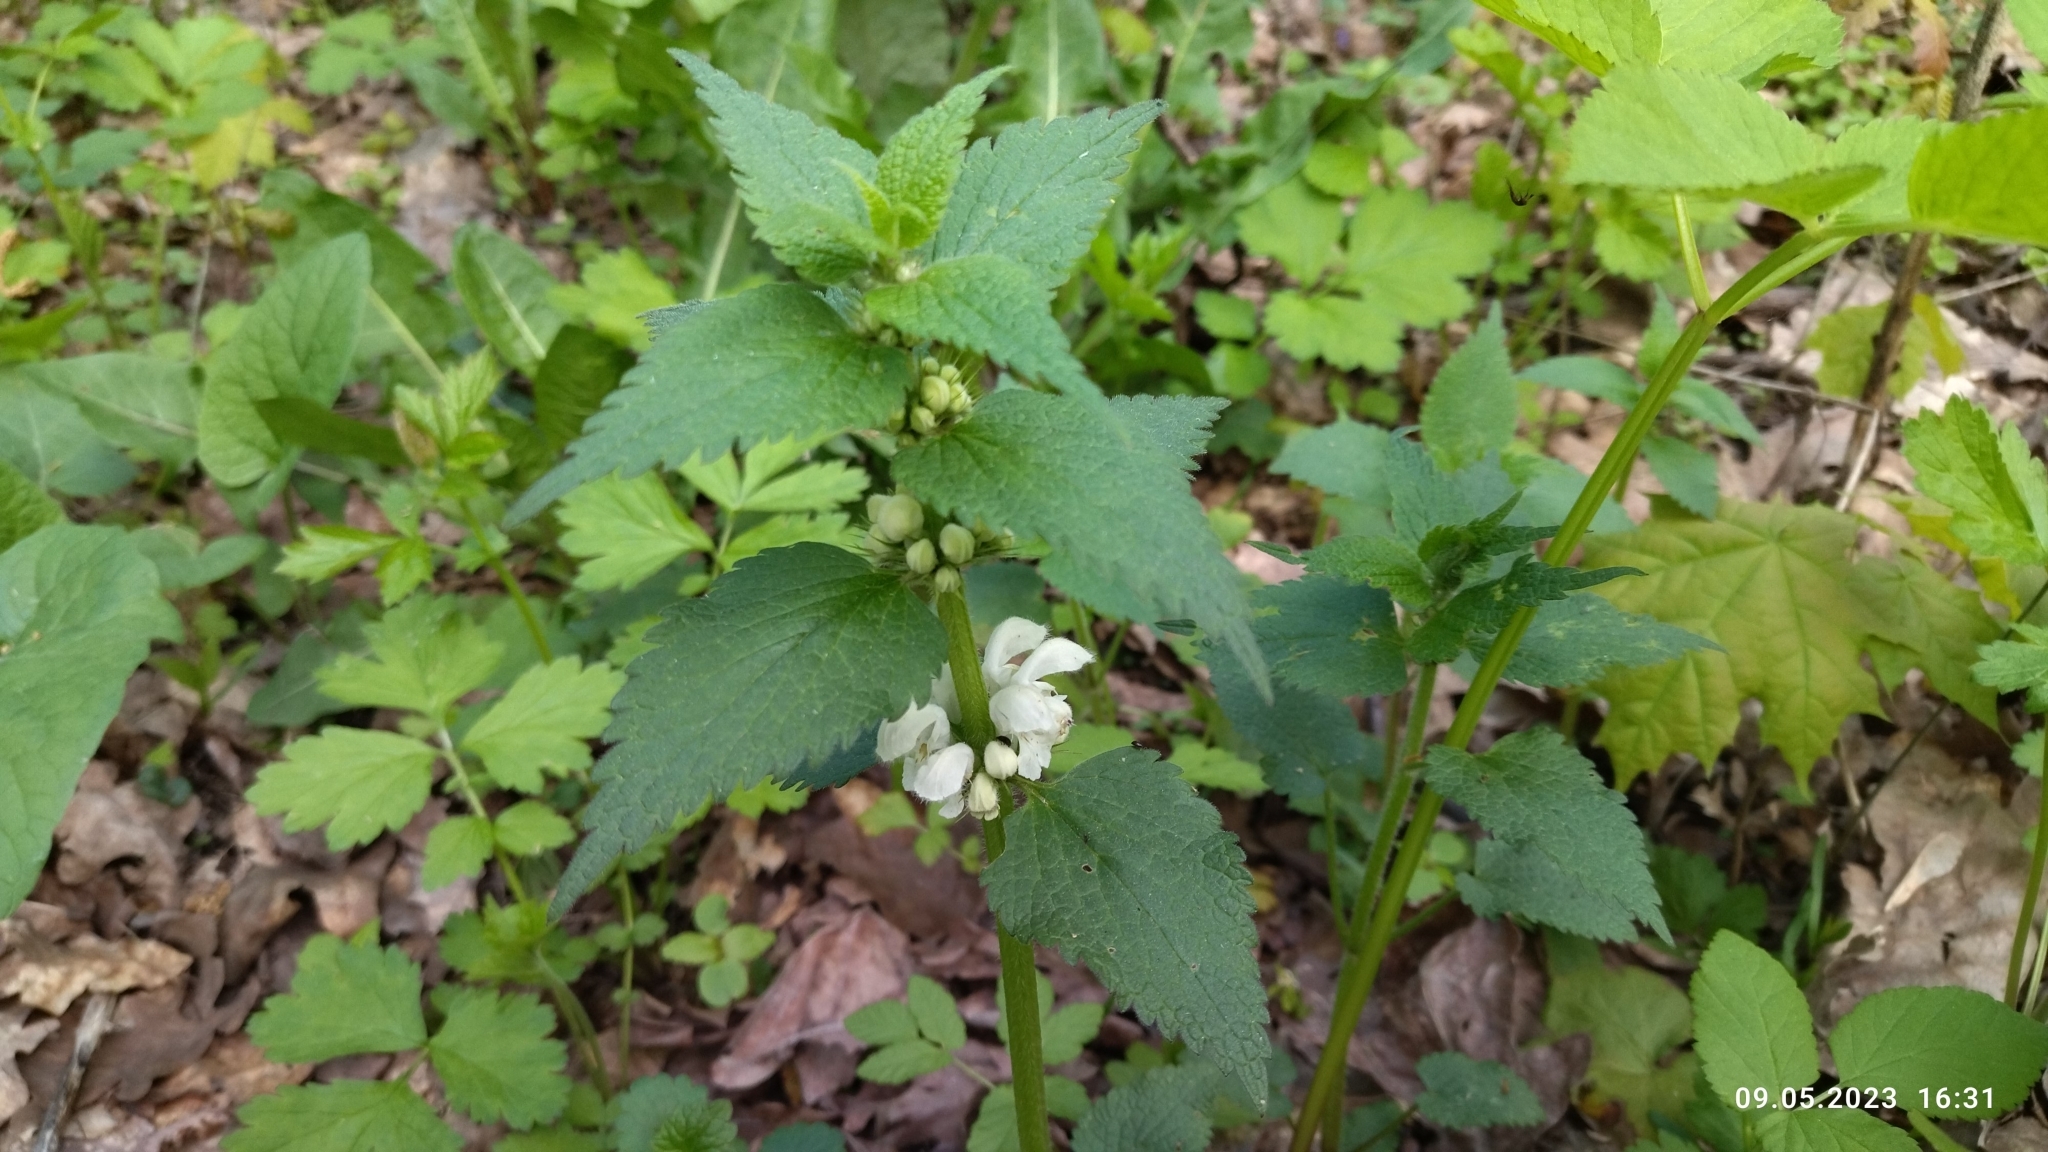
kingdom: Plantae
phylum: Tracheophyta
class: Magnoliopsida
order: Lamiales
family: Lamiaceae
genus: Lamium
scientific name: Lamium album
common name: White dead-nettle
